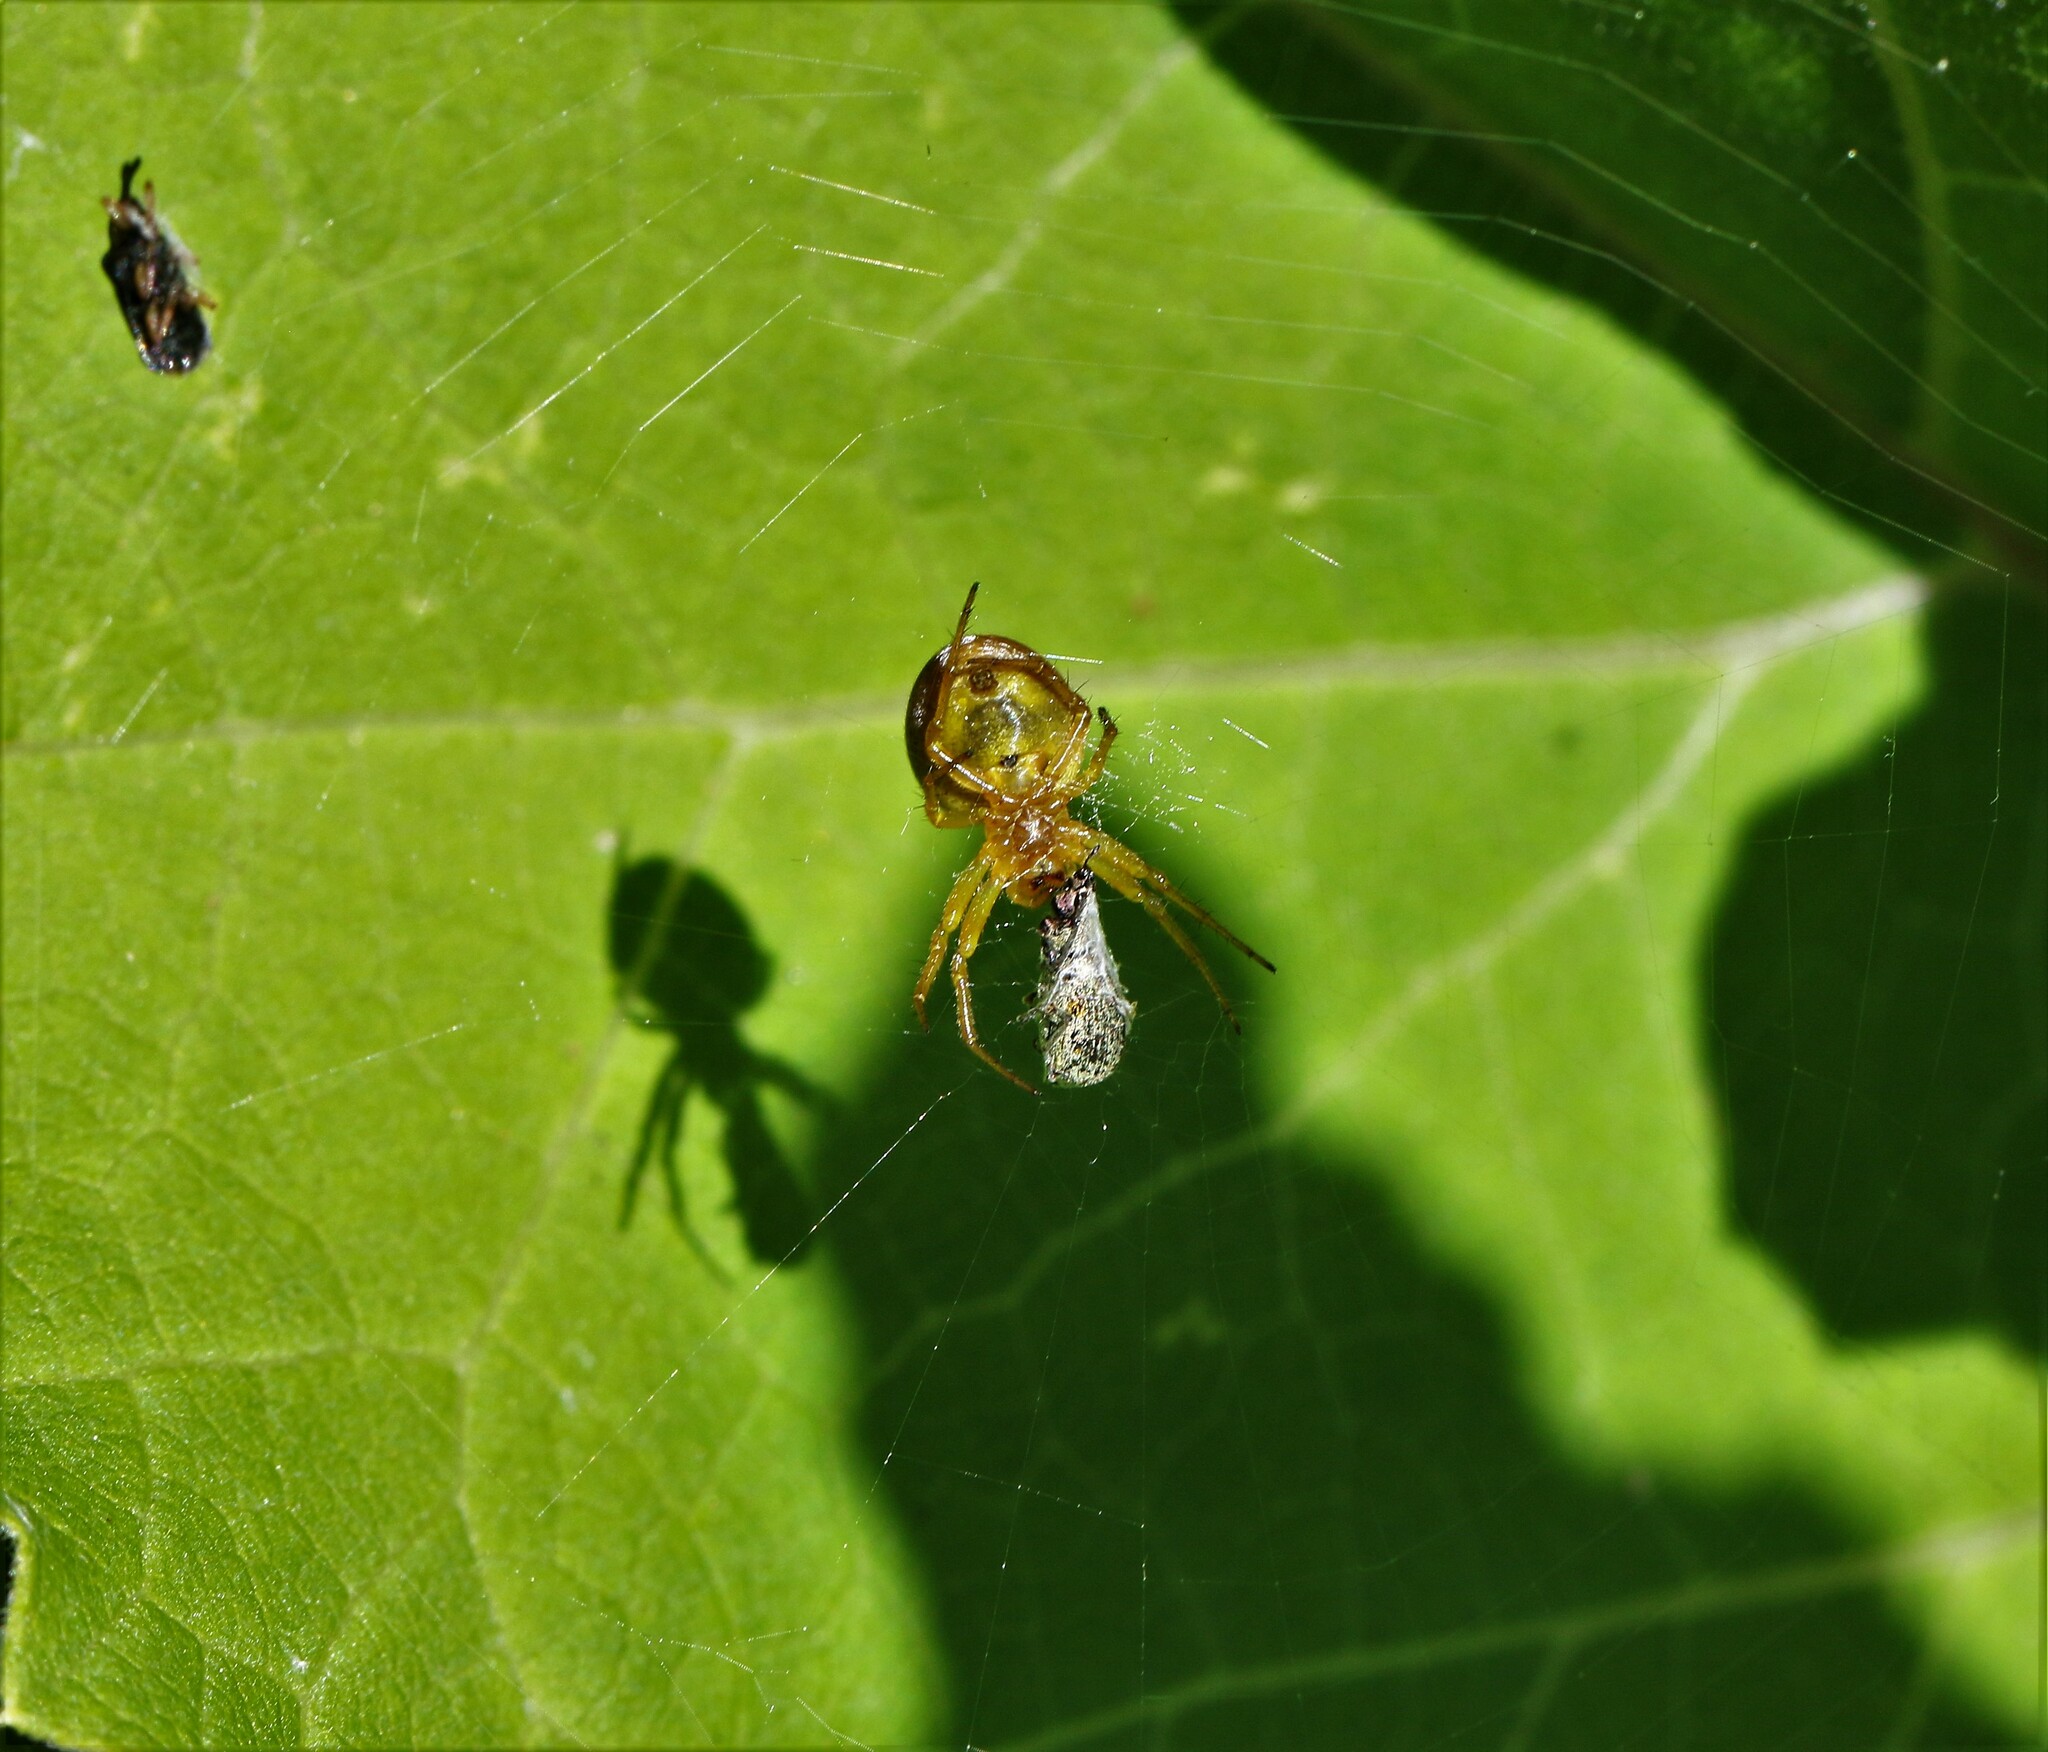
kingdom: Animalia
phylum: Arthropoda
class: Arachnida
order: Araneae
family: Araneidae
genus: Araniella
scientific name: Araniella displicata
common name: Sixspotted orb weaver
